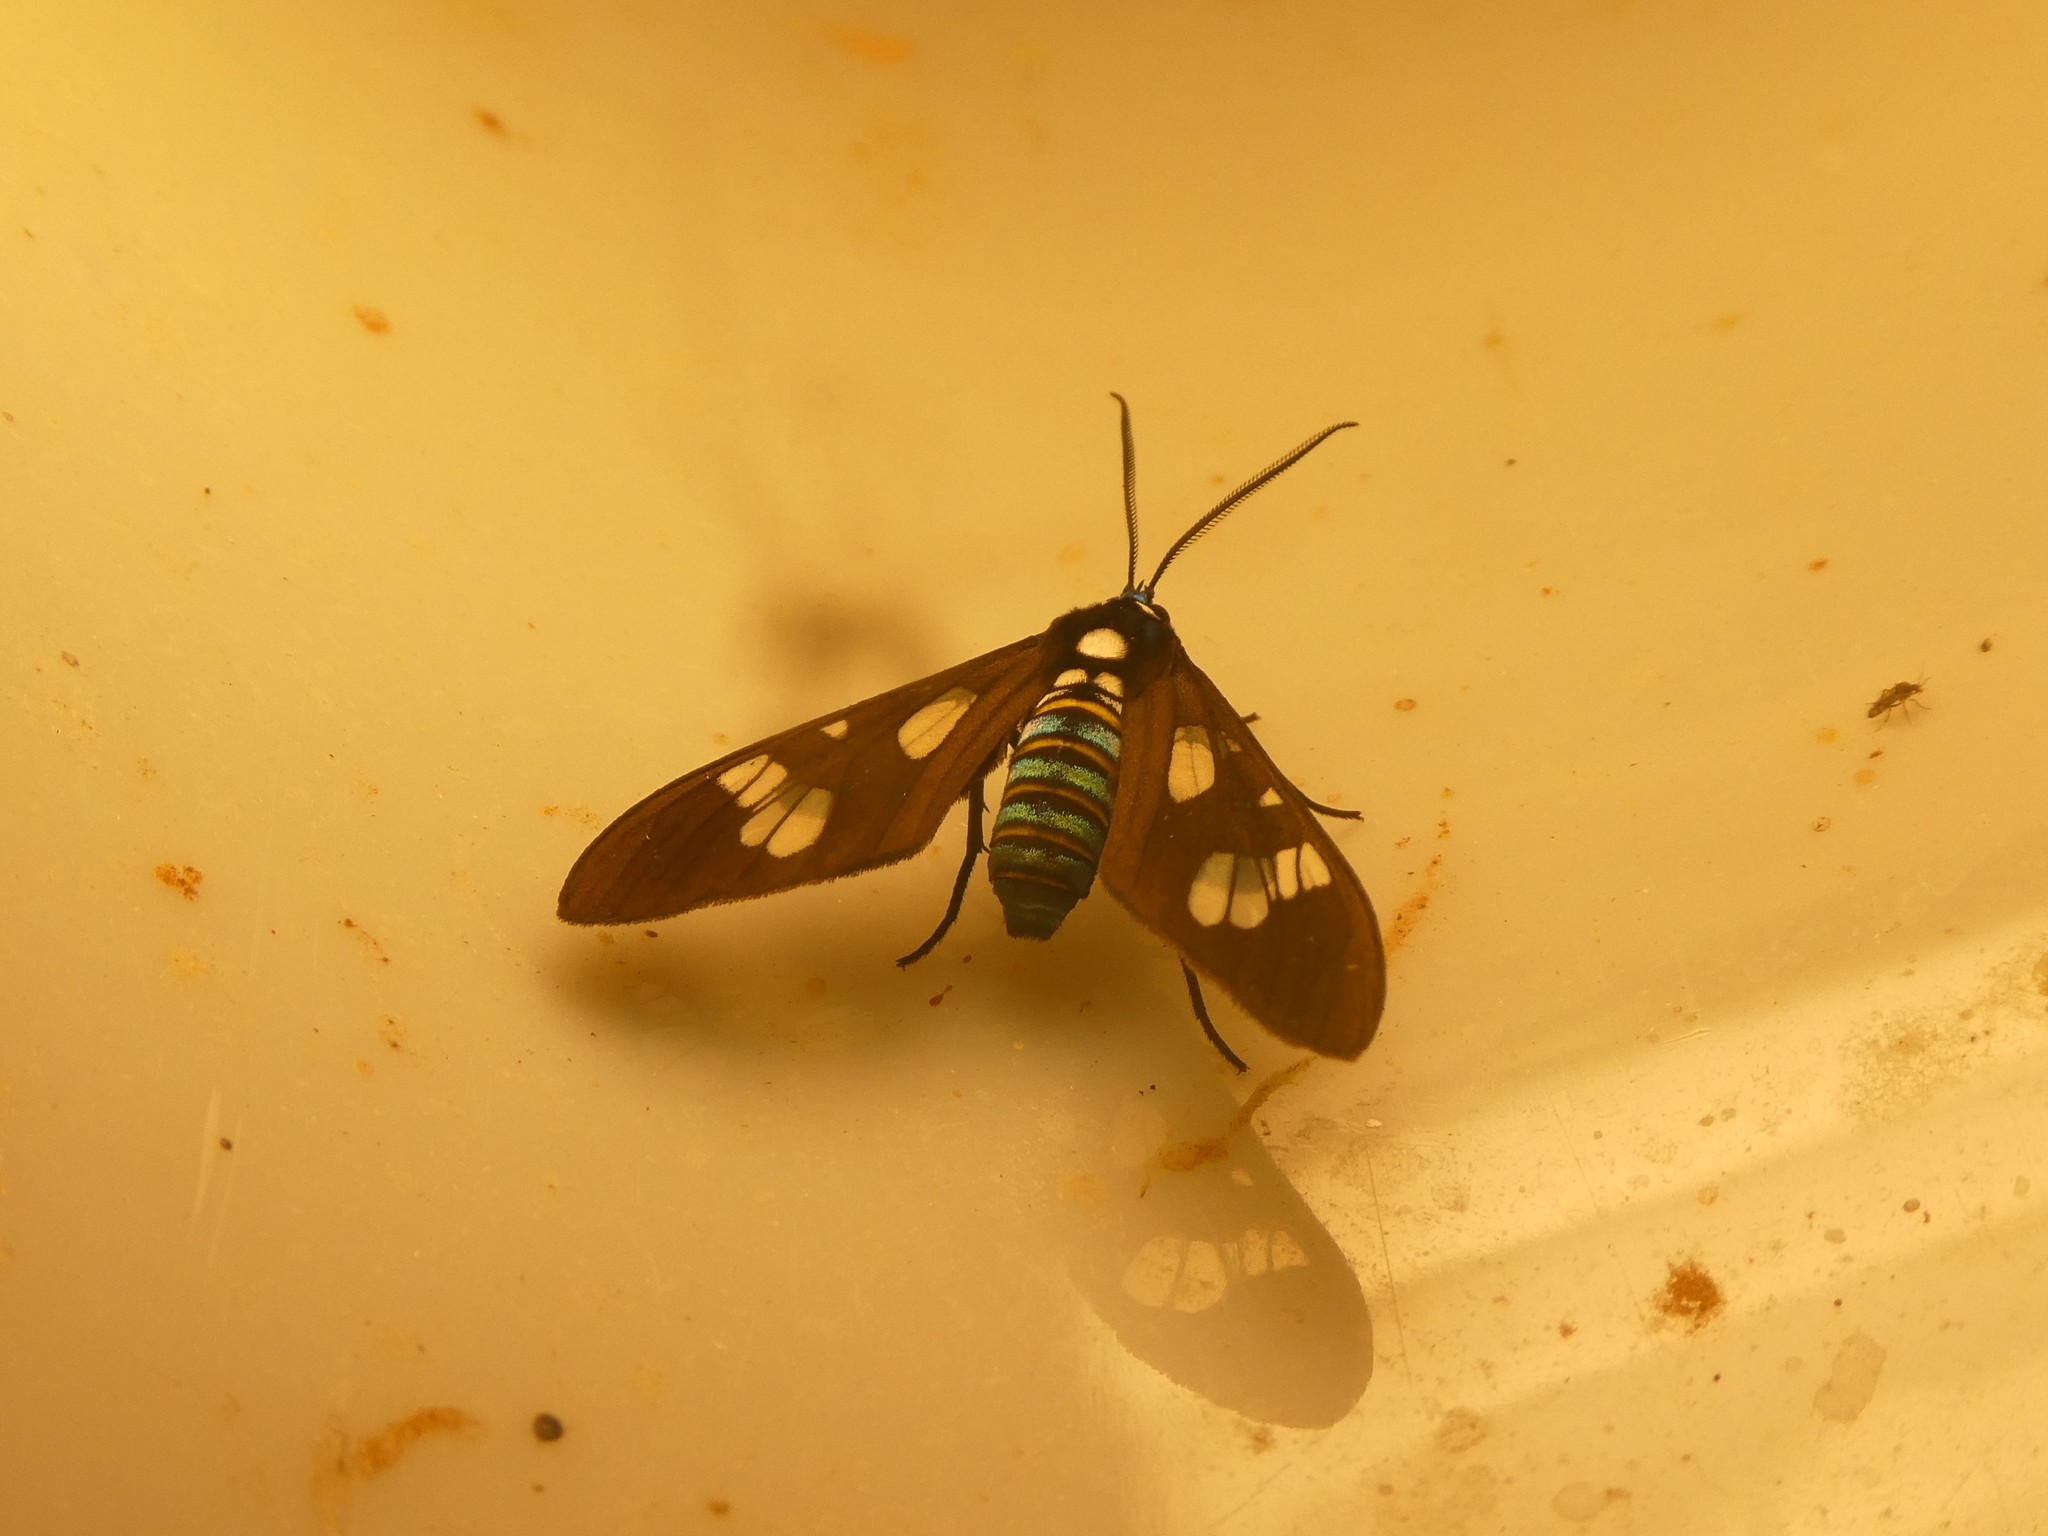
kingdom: Animalia
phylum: Arthropoda
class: Insecta
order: Lepidoptera
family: Erebidae
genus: Phaio
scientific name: Phaio acquiguttata
